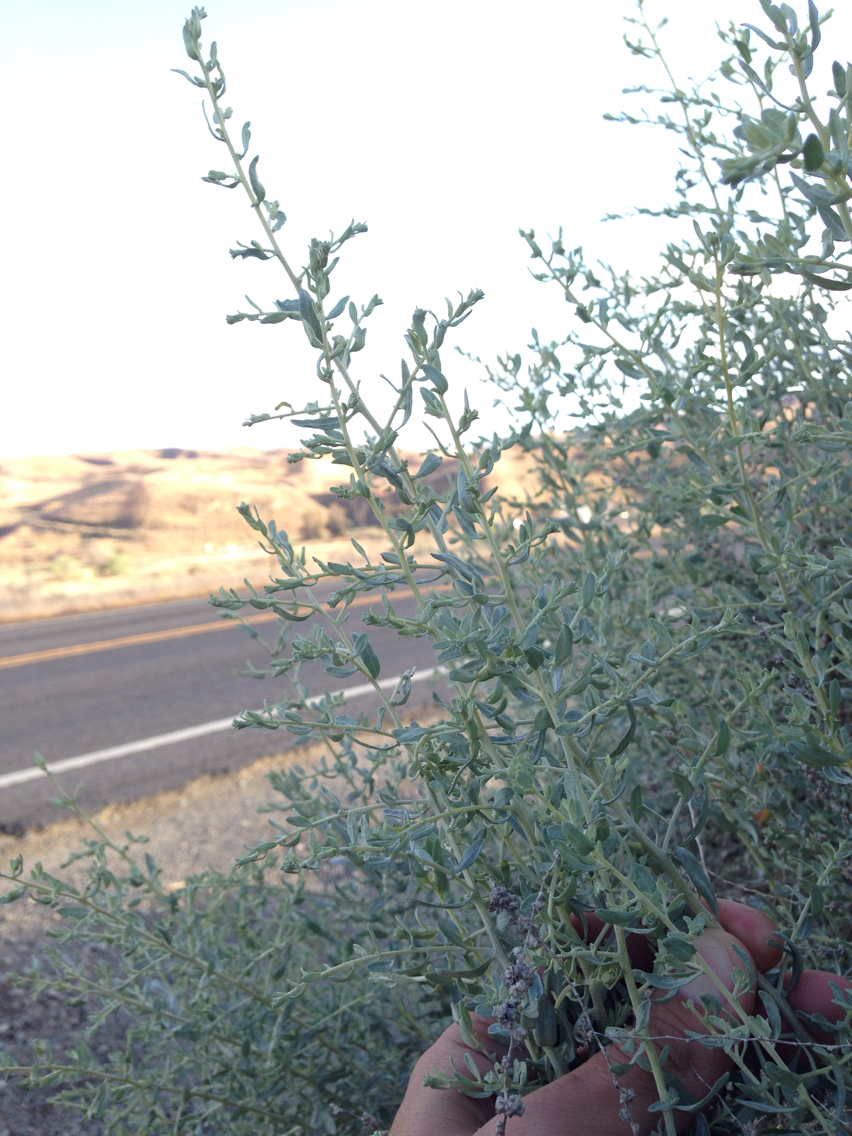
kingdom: Plantae
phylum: Tracheophyta
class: Magnoliopsida
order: Caryophyllales
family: Amaranthaceae
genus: Atriplex
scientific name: Atriplex polycarpa
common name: Desert saltbush
